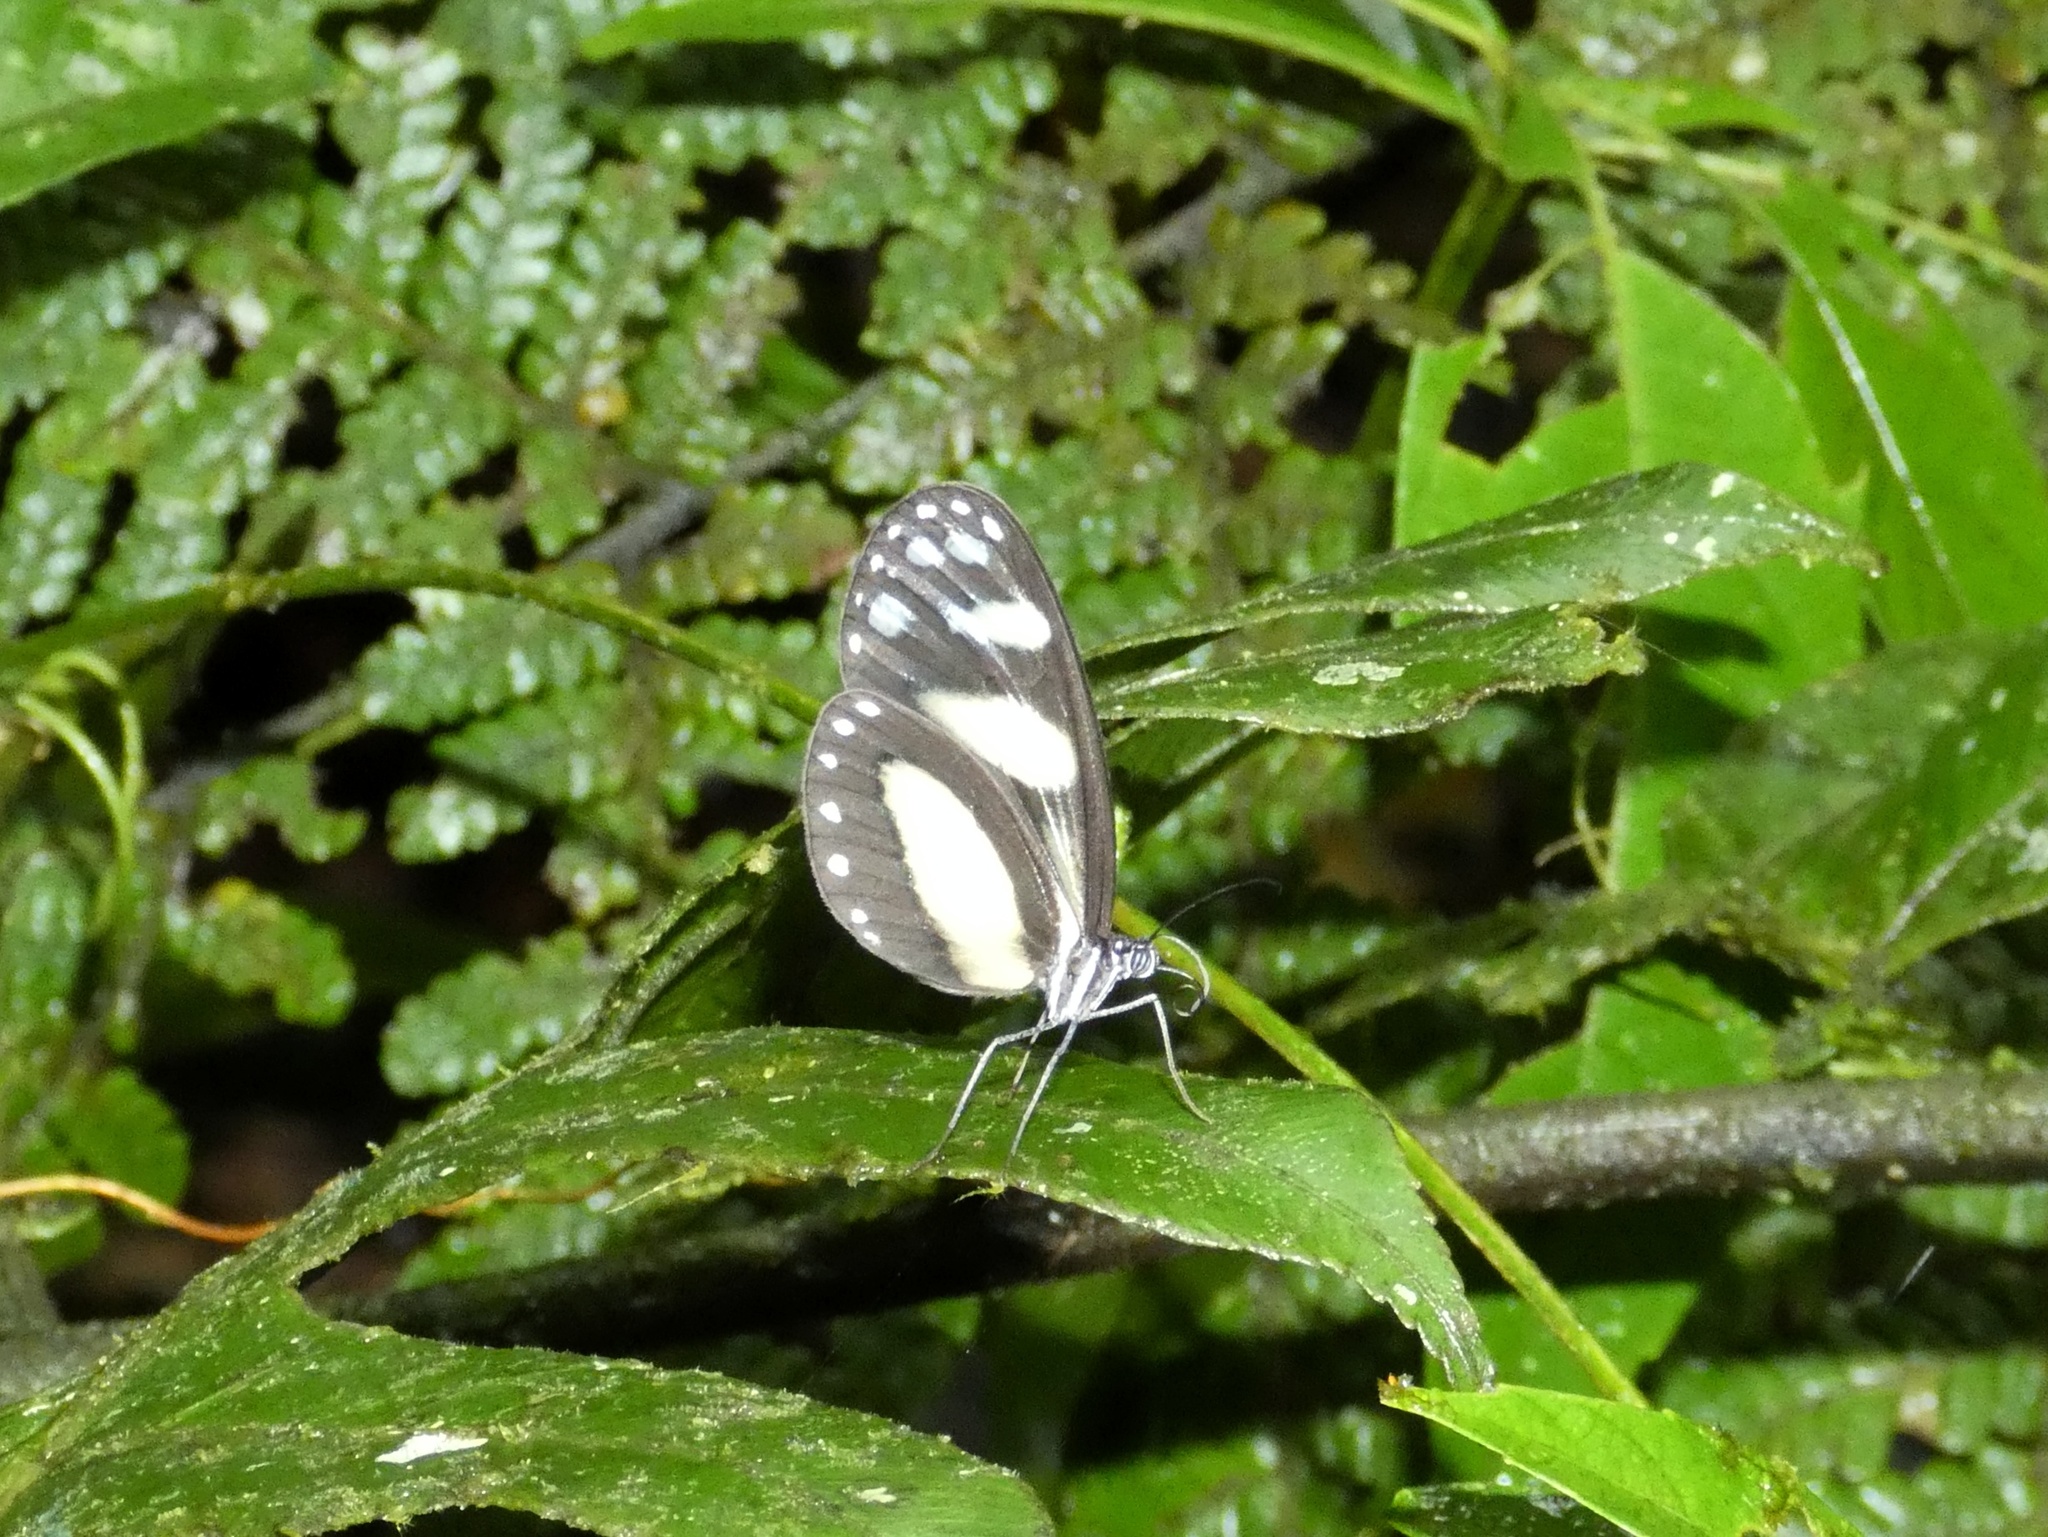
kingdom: Animalia
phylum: Arthropoda
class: Insecta
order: Lepidoptera
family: Nymphalidae
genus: Oleria
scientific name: Oleria zelica
